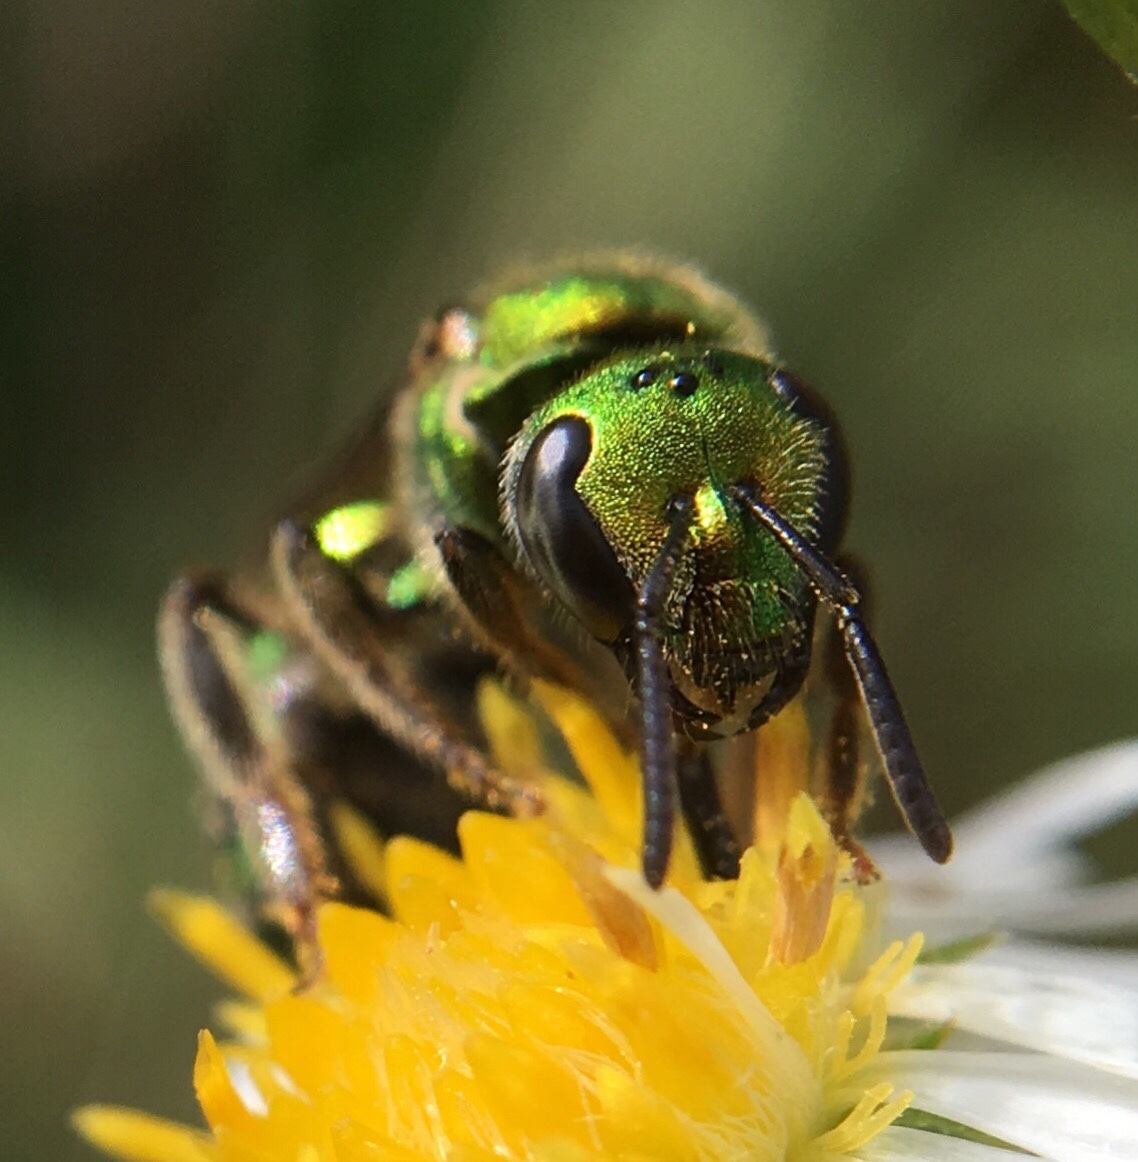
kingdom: Animalia
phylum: Arthropoda
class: Insecta
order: Hymenoptera
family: Halictidae
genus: Augochlora
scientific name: Augochlora pura
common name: Pure green sweat bee
